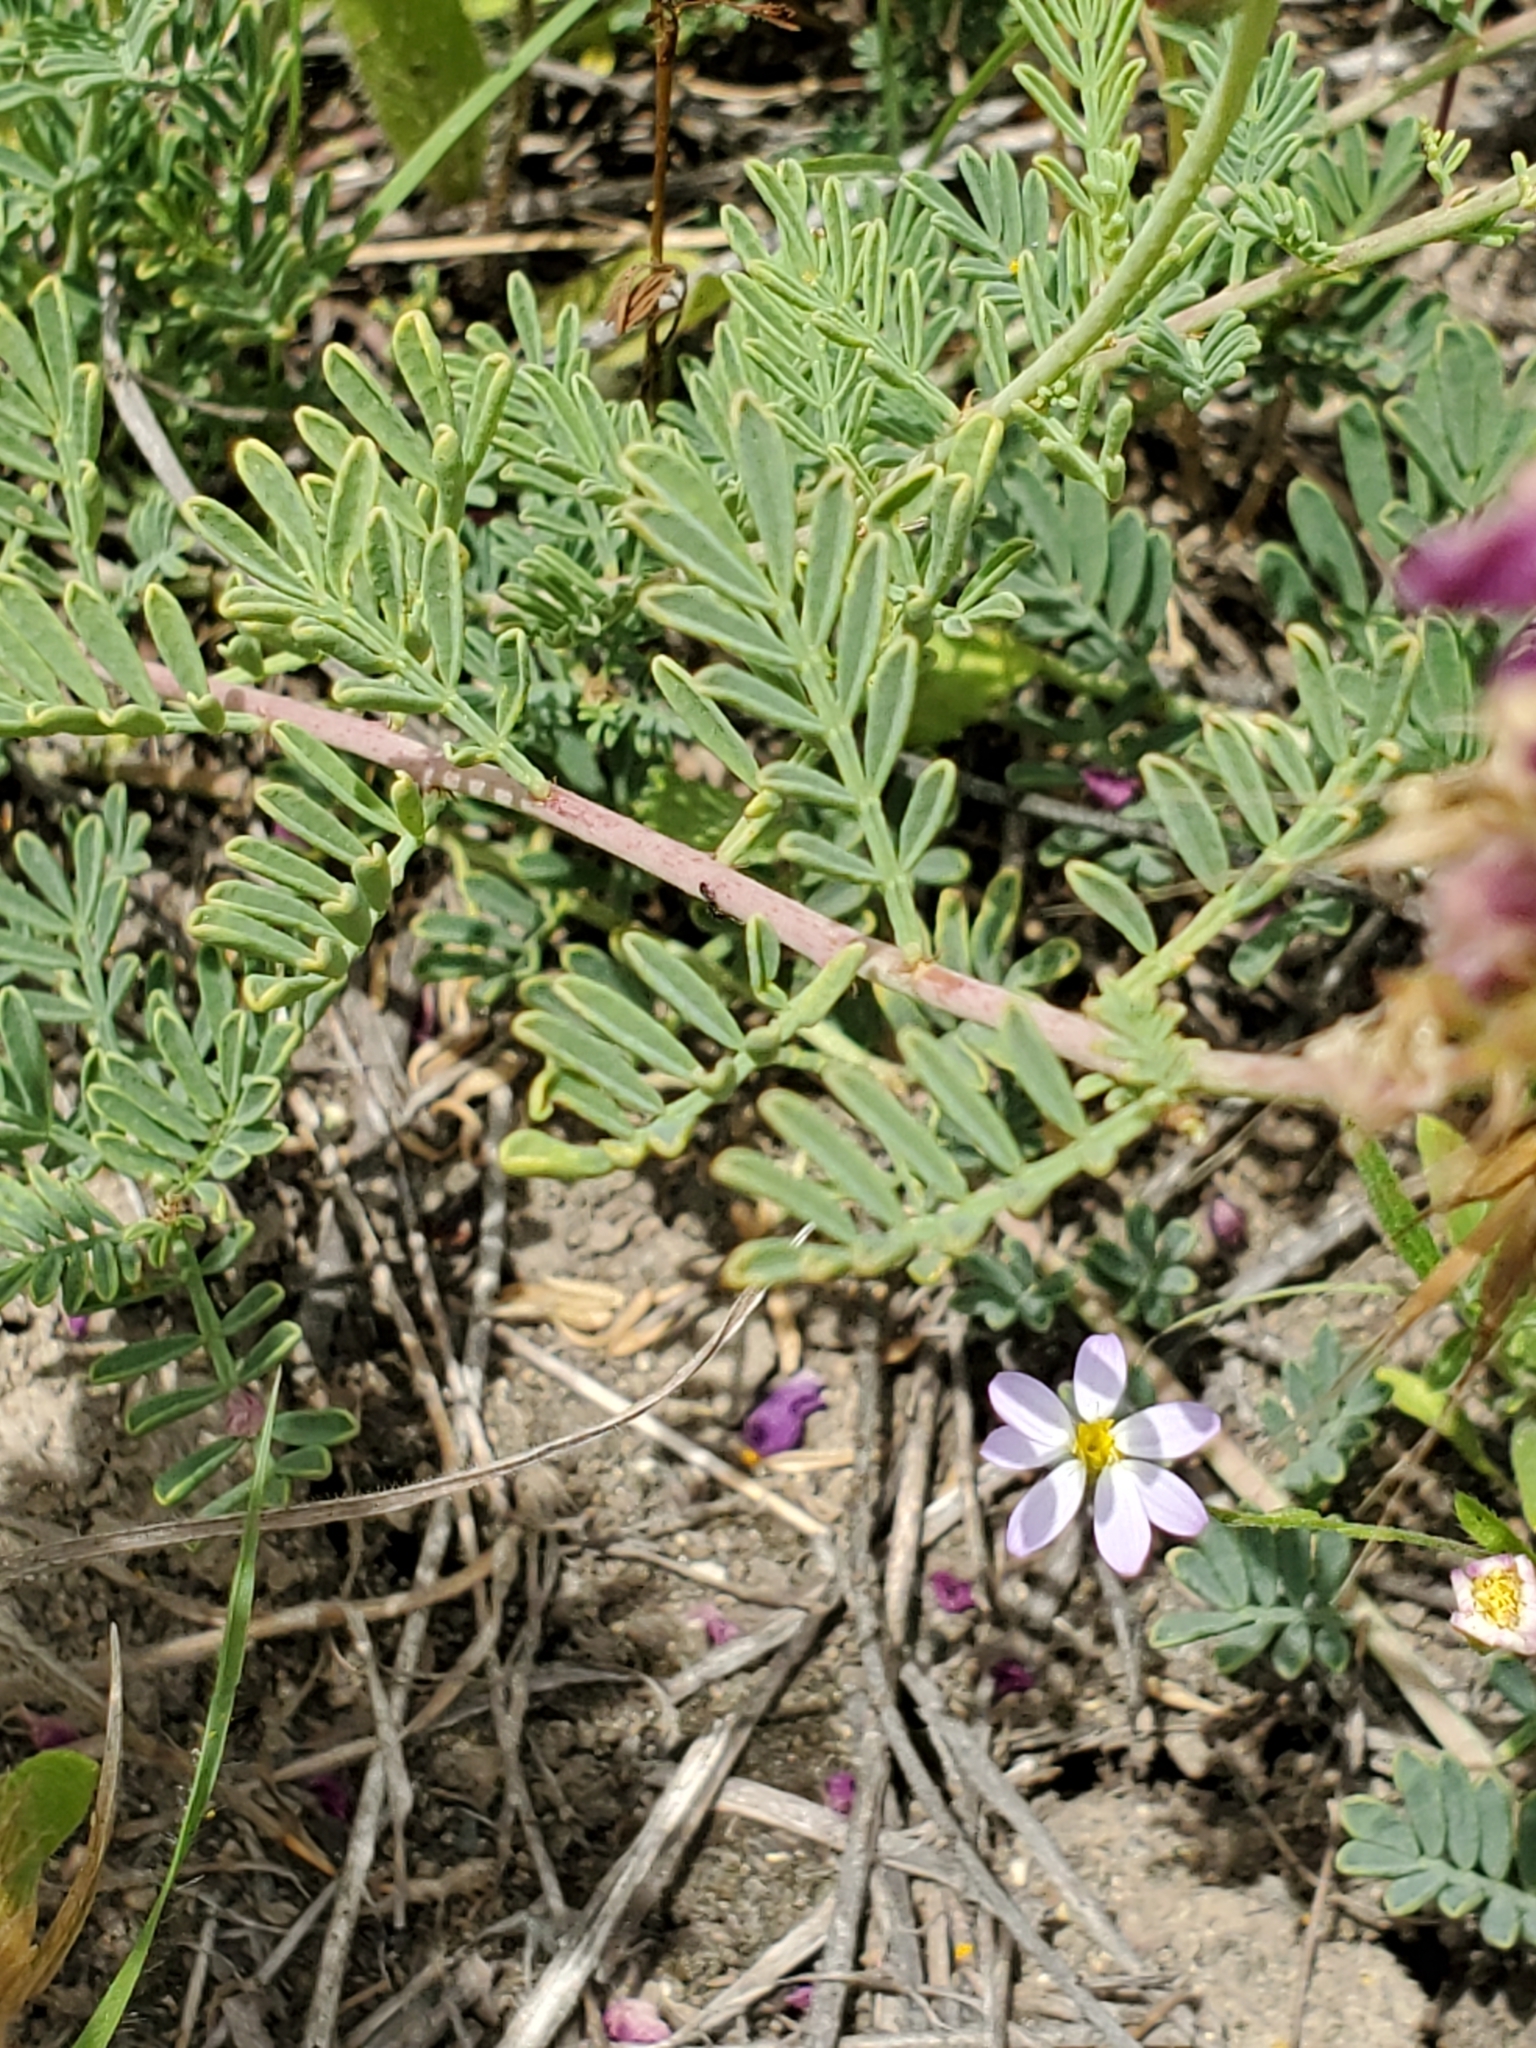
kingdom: Plantae
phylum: Tracheophyta
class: Magnoliopsida
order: Fabales
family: Fabaceae
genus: Dalea
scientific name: Dalea lasiathera
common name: Purple prairie-clover
